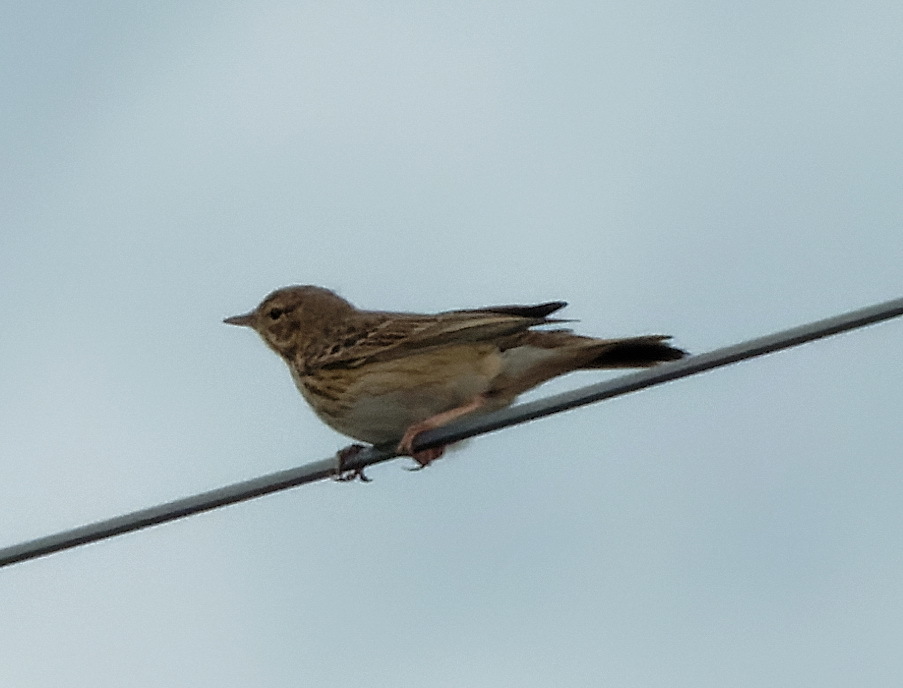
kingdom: Animalia
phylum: Chordata
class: Aves
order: Passeriformes
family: Motacillidae
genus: Anthus
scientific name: Anthus trivialis
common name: Tree pipit
